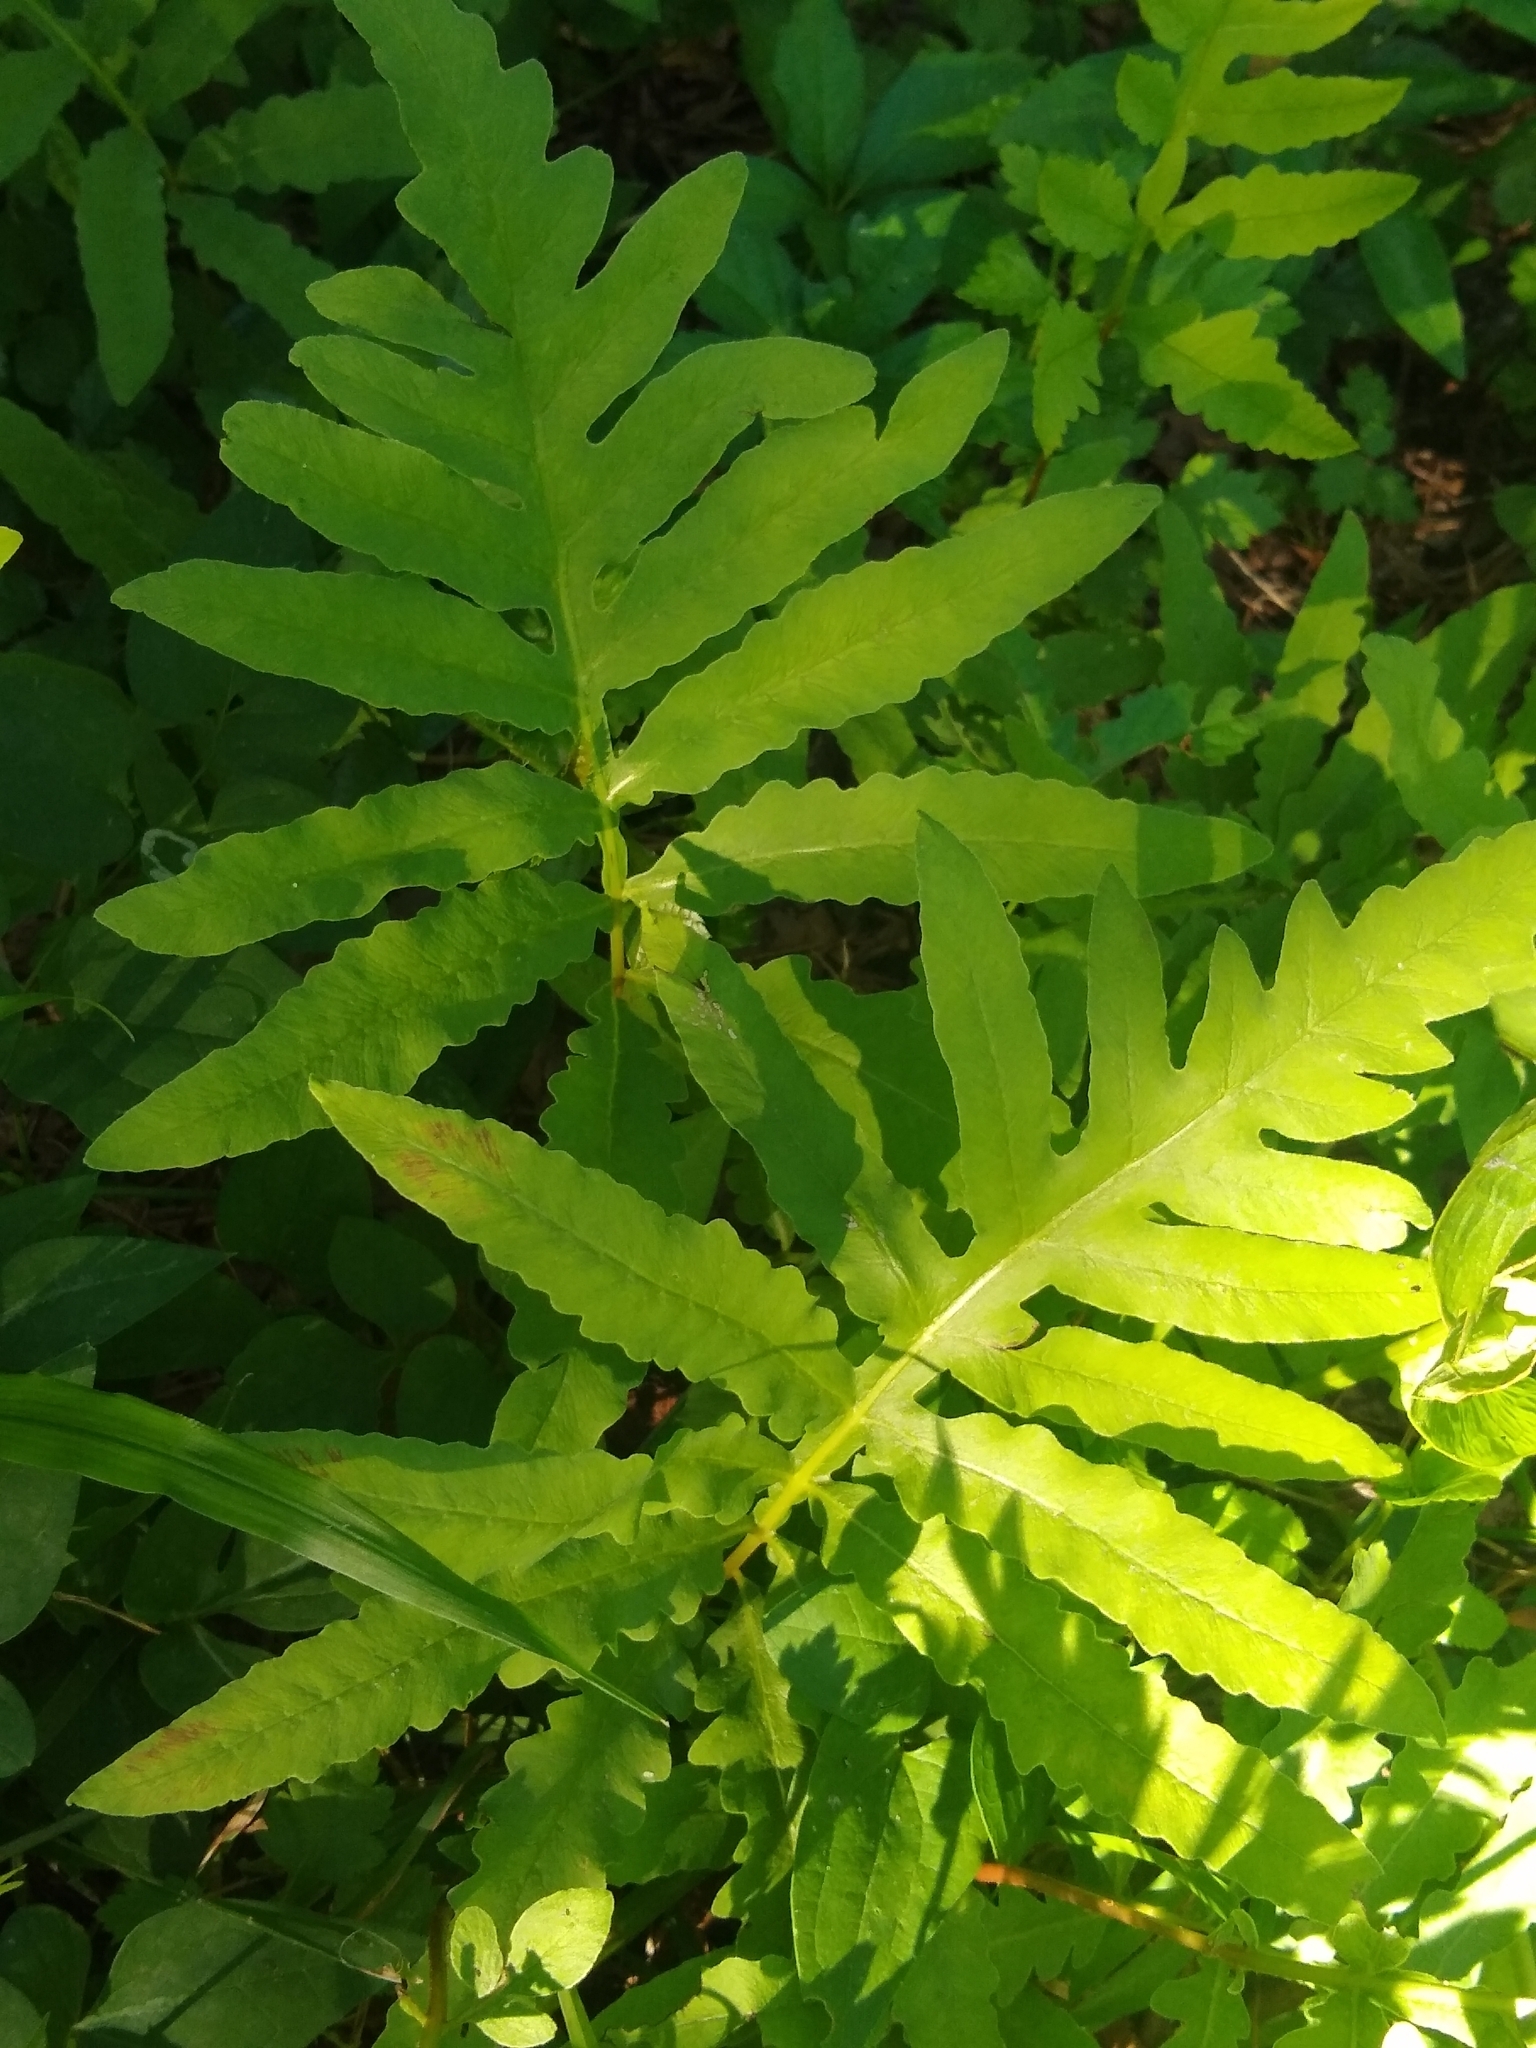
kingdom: Plantae
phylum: Tracheophyta
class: Polypodiopsida
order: Polypodiales
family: Onocleaceae
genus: Onoclea
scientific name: Onoclea sensibilis
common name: Sensitive fern
